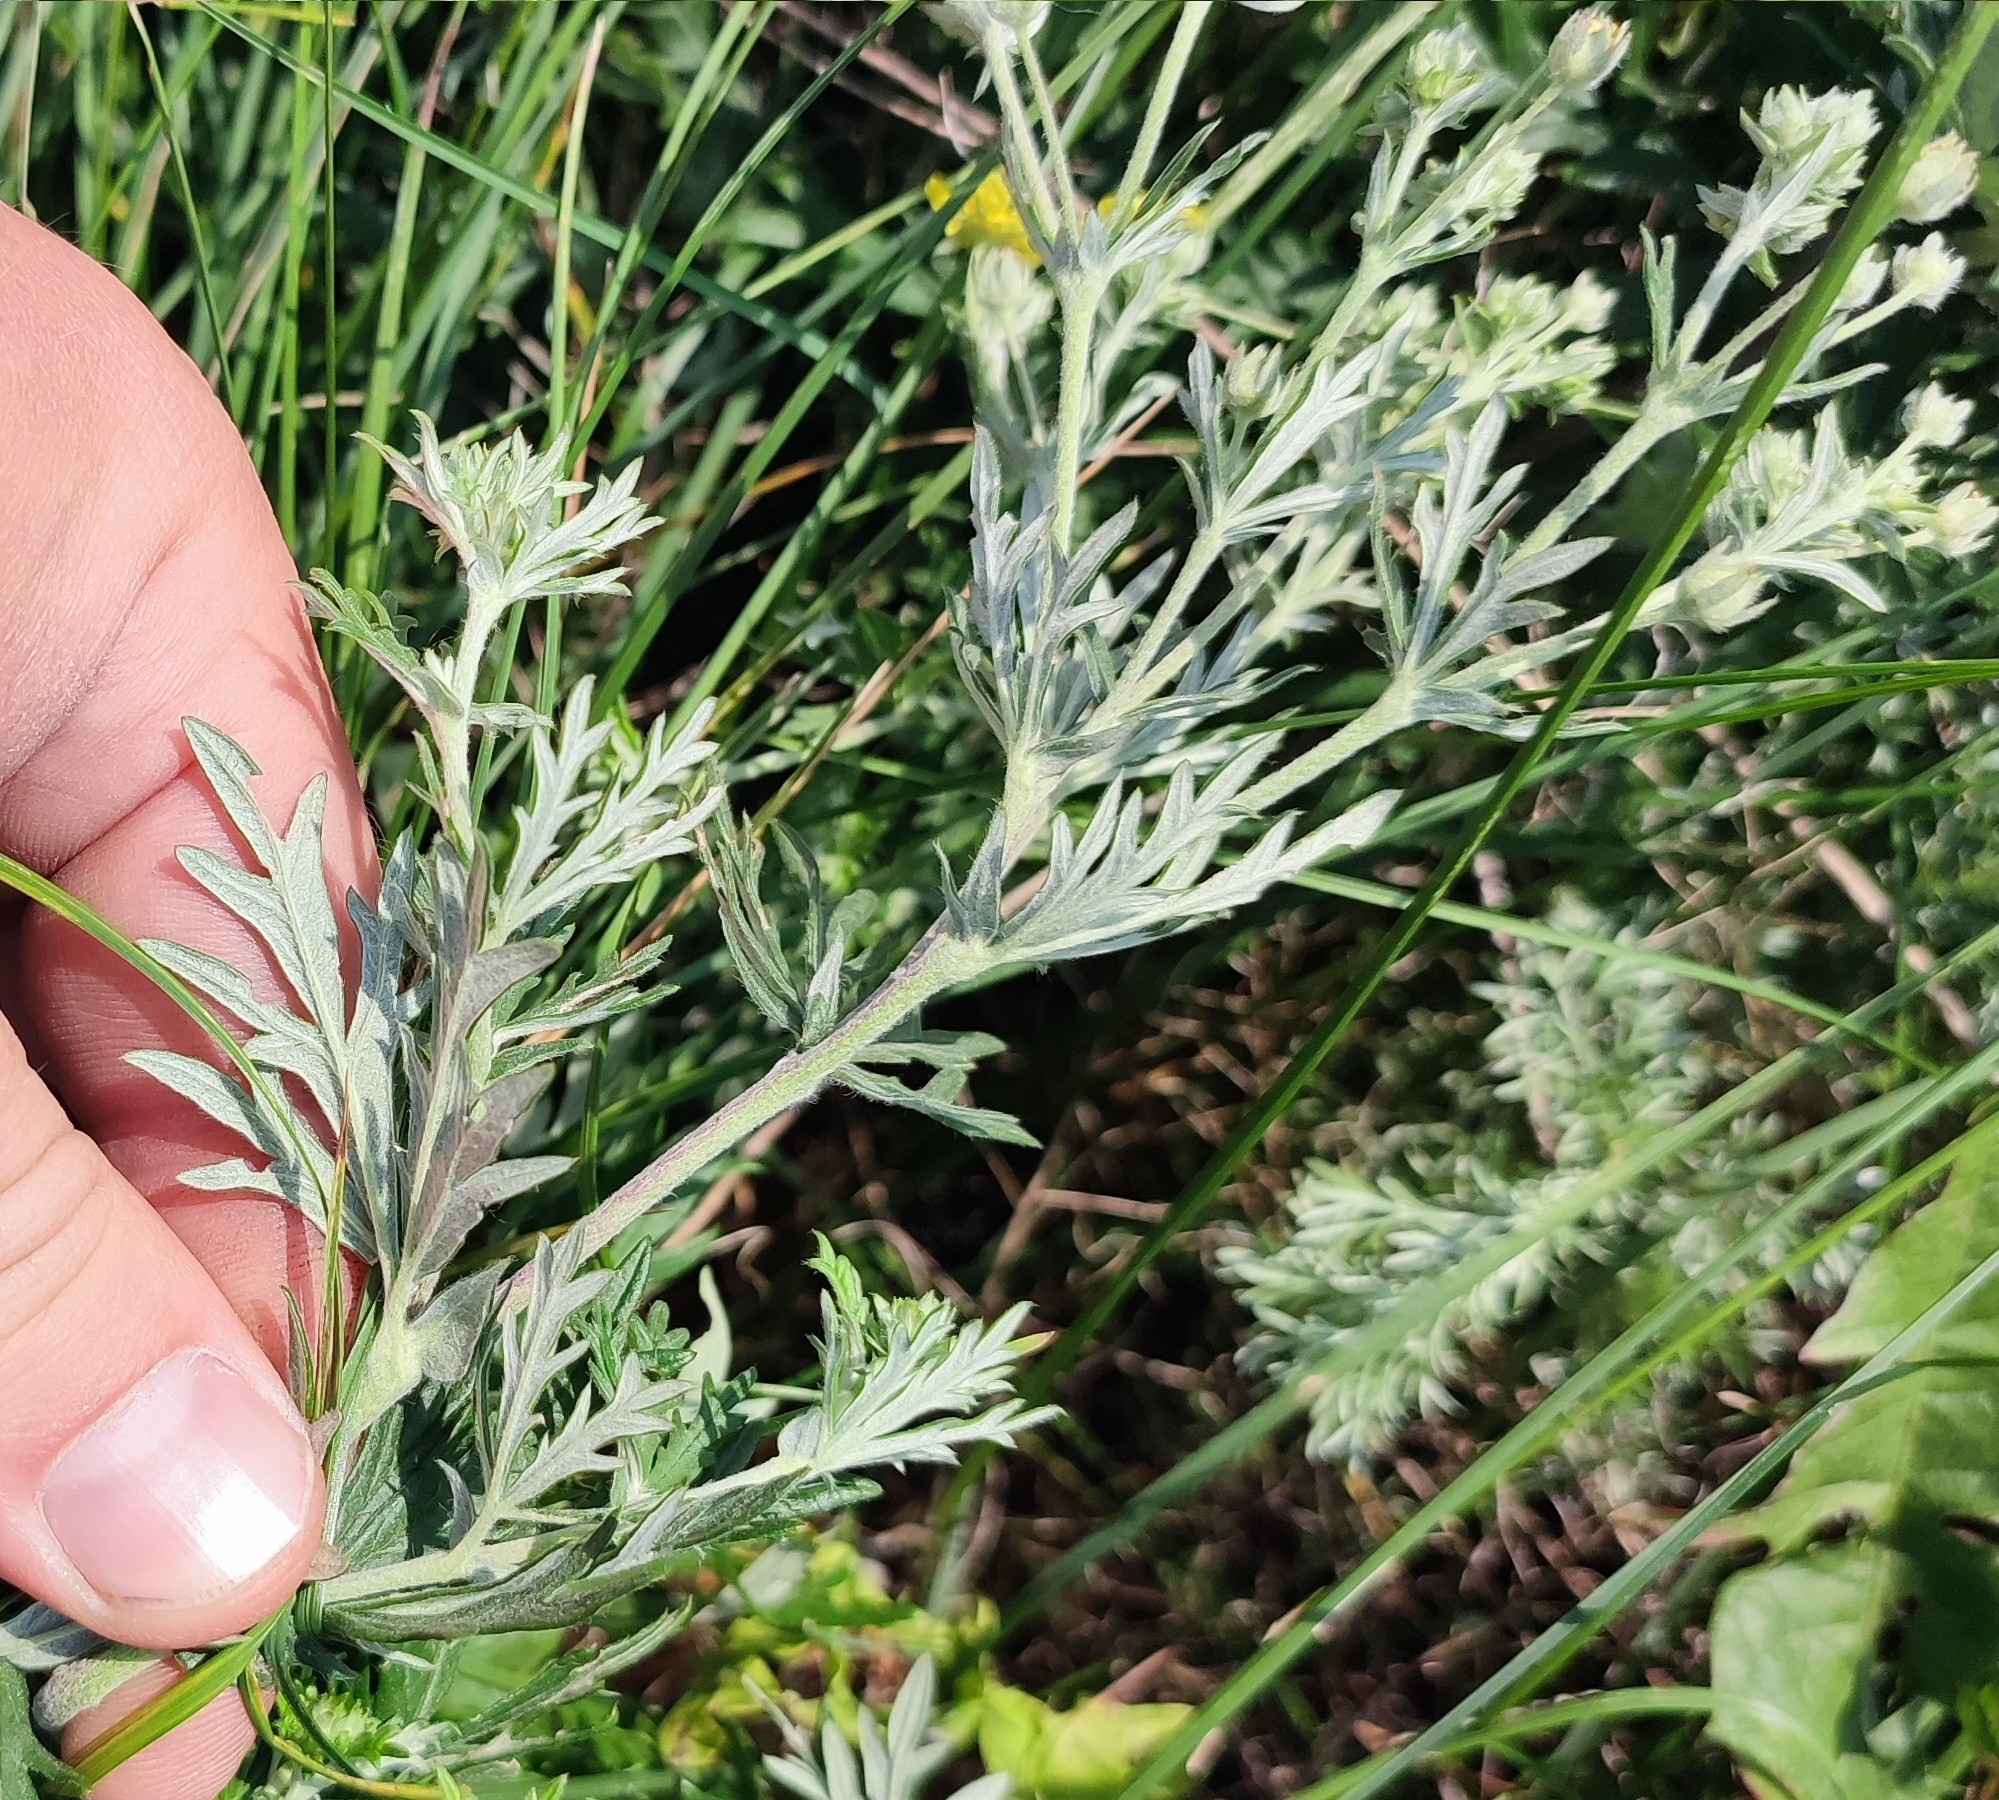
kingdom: Plantae
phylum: Tracheophyta
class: Magnoliopsida
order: Rosales
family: Rosaceae
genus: Potentilla
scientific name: Potentilla argentea
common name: Hoary cinquefoil
